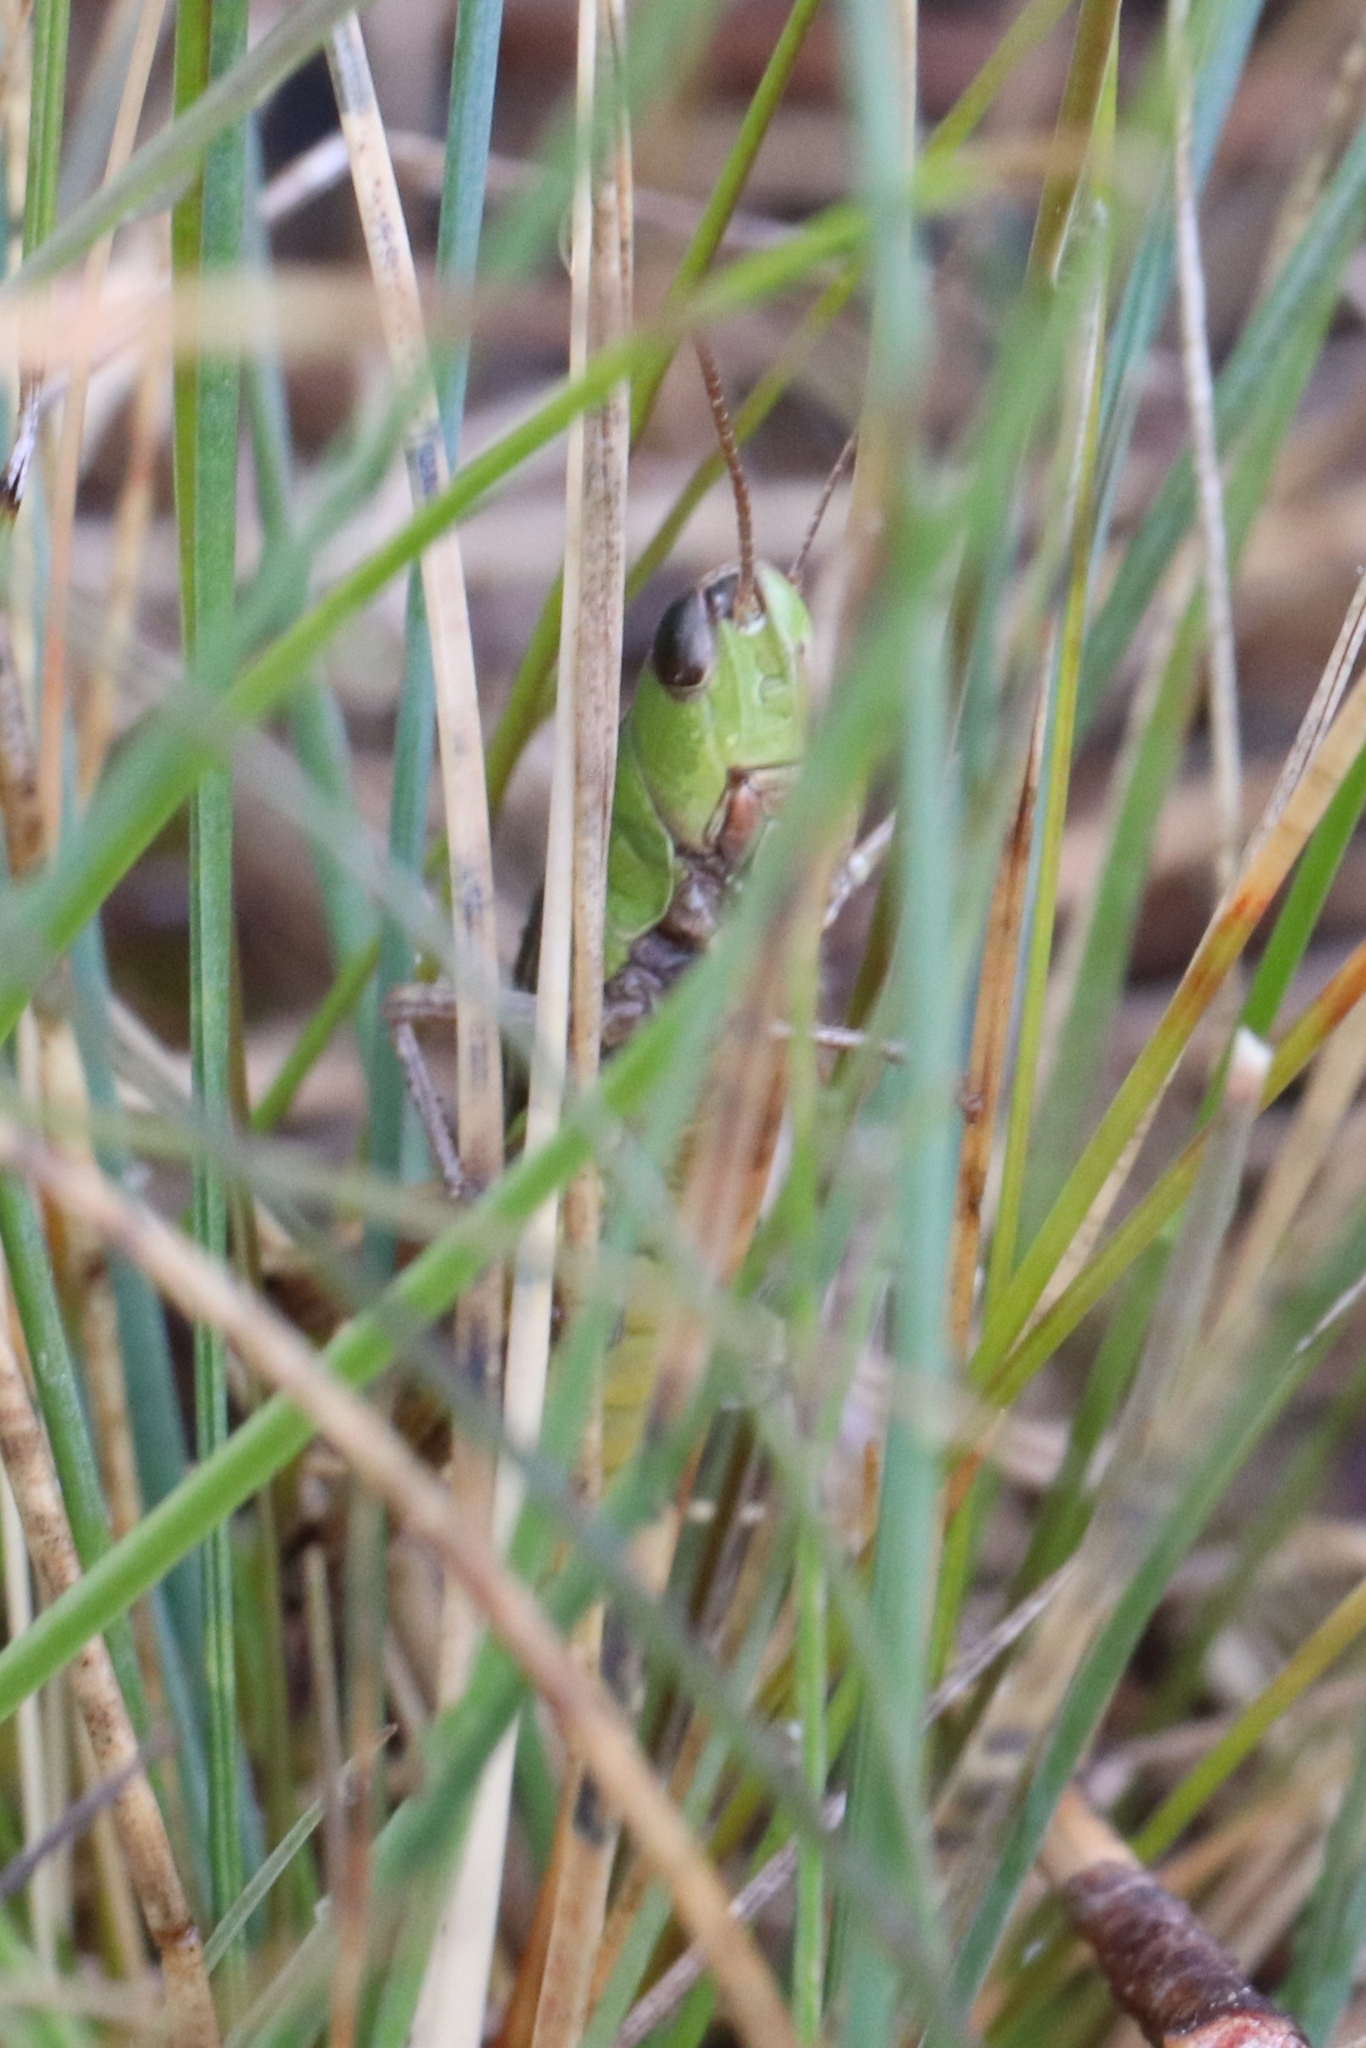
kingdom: Animalia
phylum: Arthropoda
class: Insecta
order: Orthoptera
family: Acrididae
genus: Pseudochorthippus
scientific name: Pseudochorthippus curtipennis
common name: Marsh meadow grasshopper
